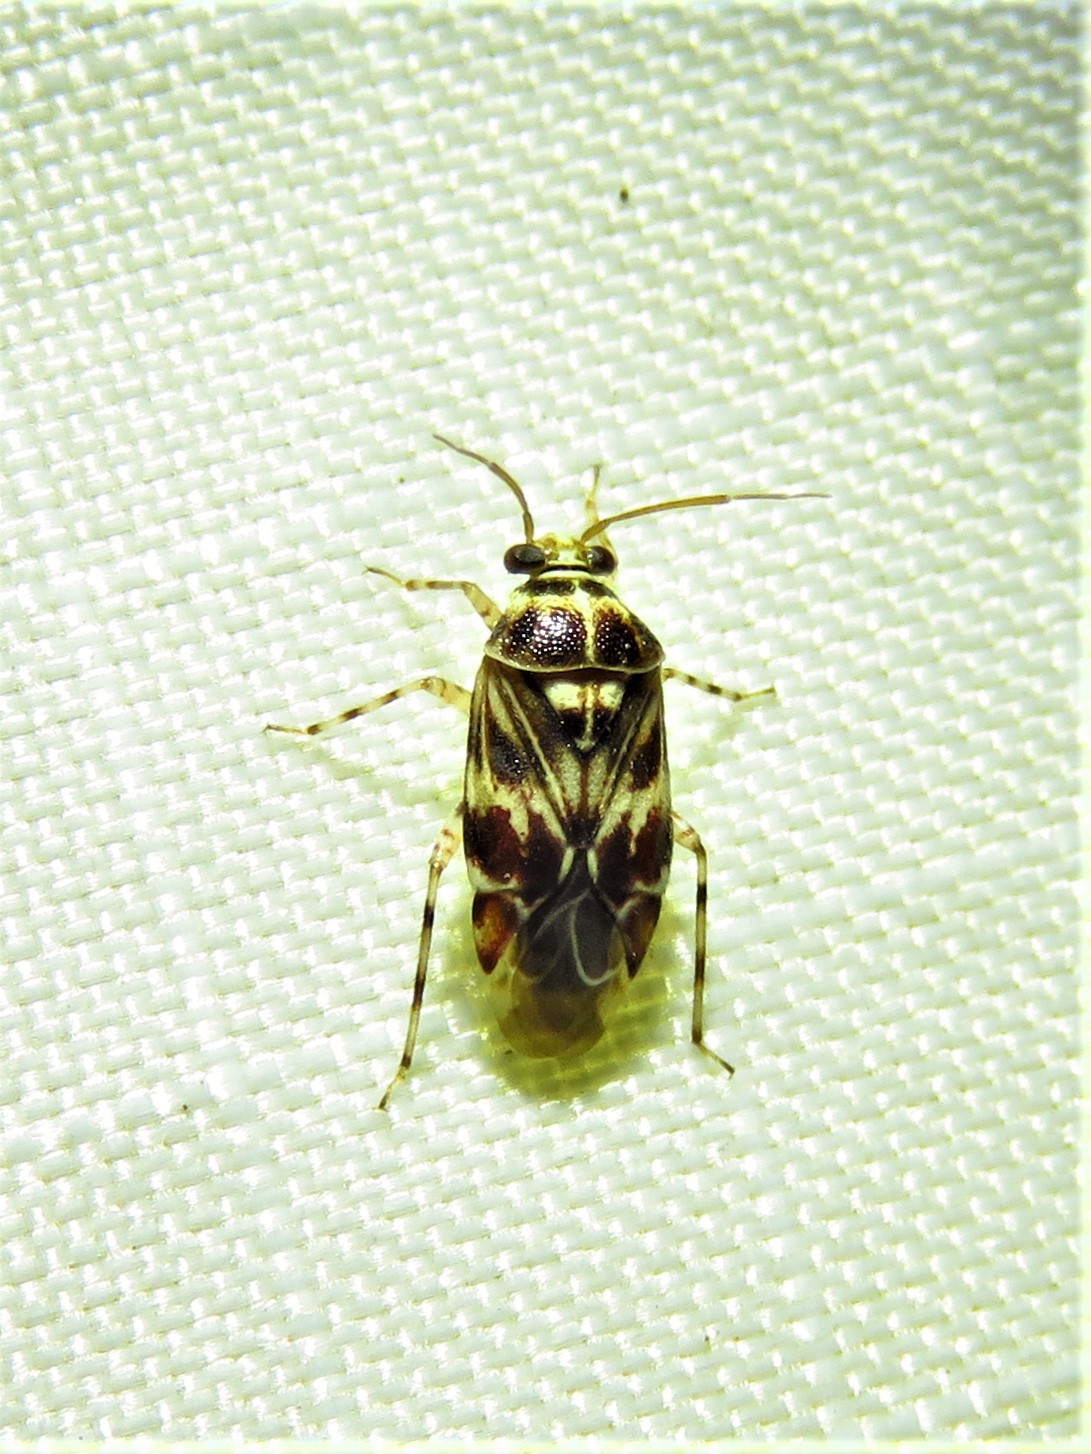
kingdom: Animalia
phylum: Arthropoda
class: Insecta
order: Hemiptera
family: Miridae
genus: Tropidosteptes
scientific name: Tropidosteptes quercicola
